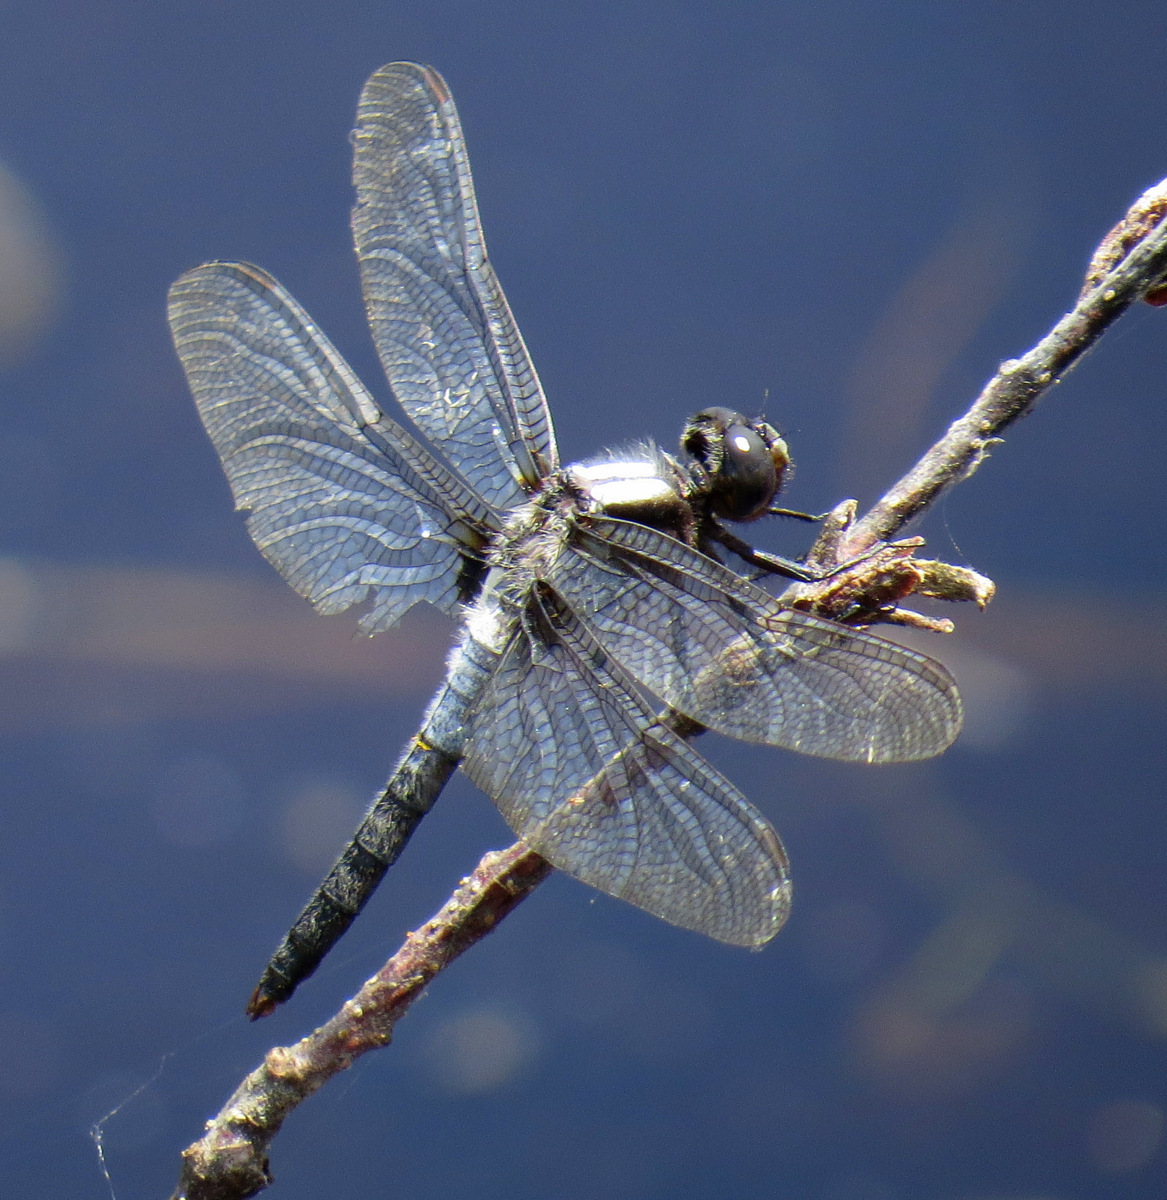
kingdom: Animalia
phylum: Arthropoda
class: Insecta
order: Odonata
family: Libellulidae
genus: Ladona
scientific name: Ladona julia
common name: Chalk-fronted corporal
